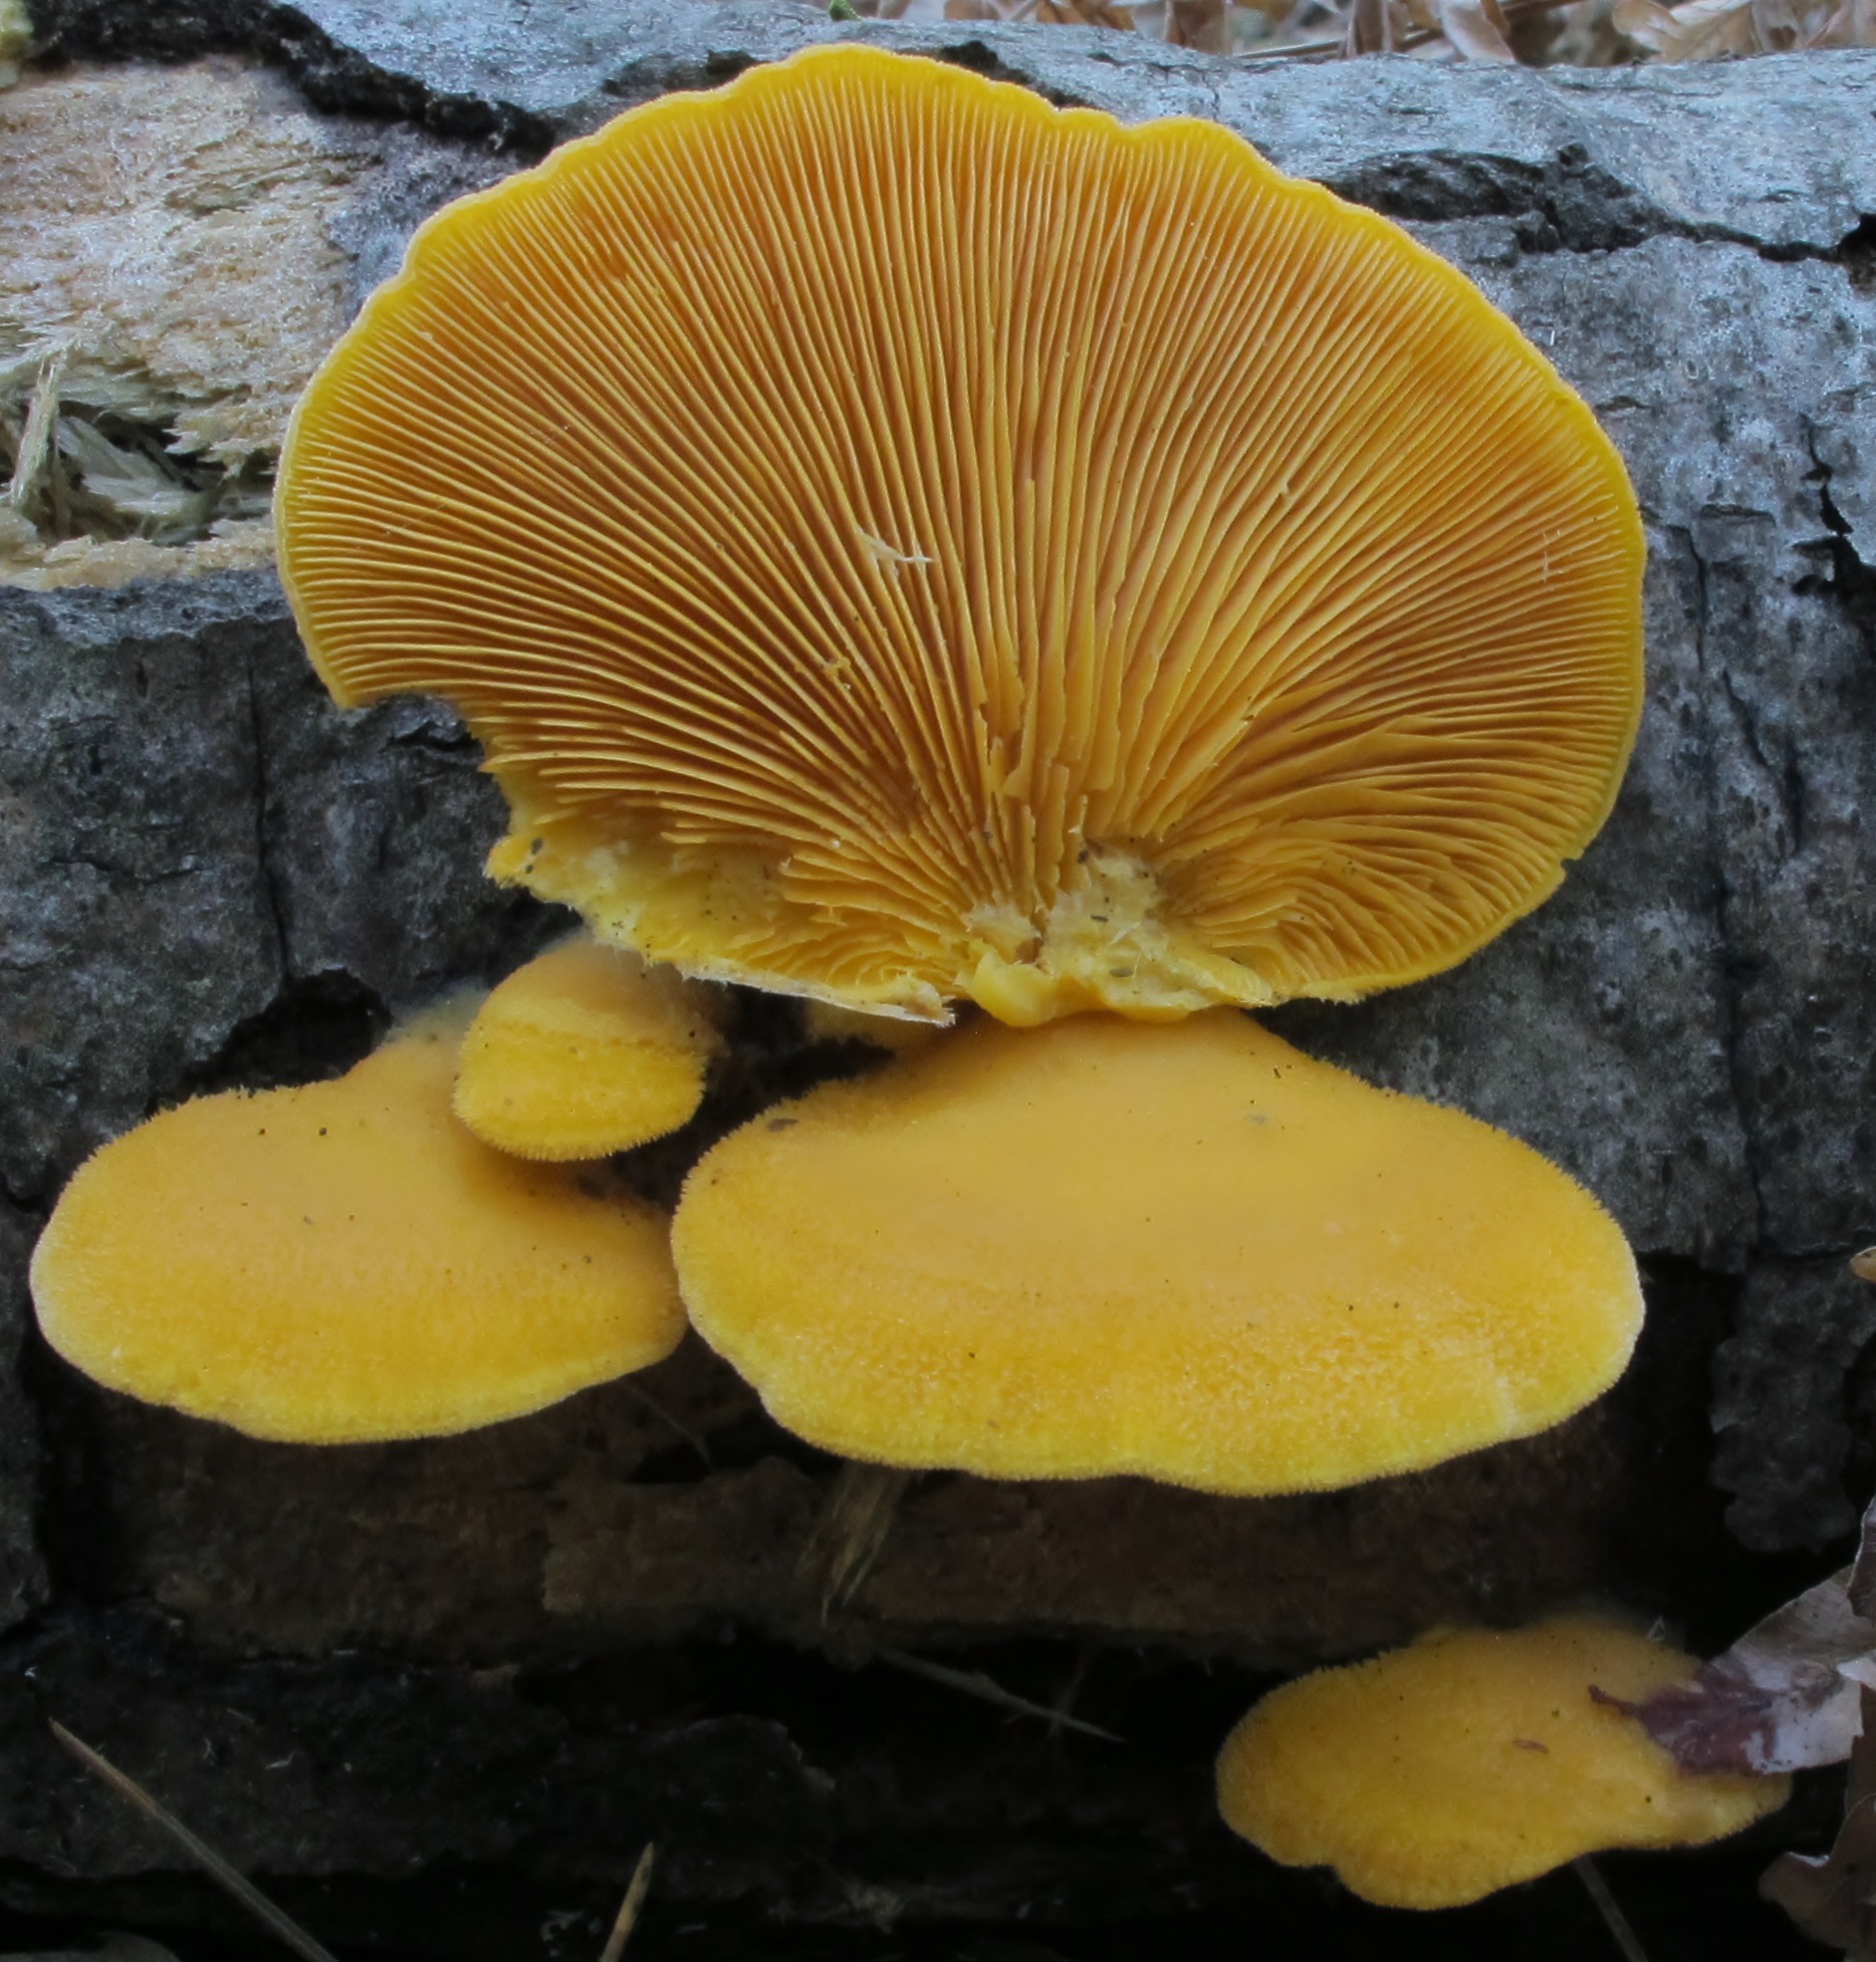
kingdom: Fungi
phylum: Basidiomycota
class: Agaricomycetes
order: Agaricales
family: Phyllotopsidaceae
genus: Phyllotopsis
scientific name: Phyllotopsis nidulans
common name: Orange mock oyster
